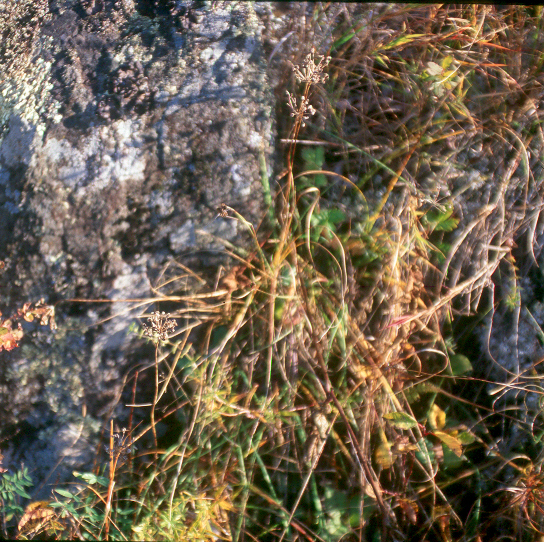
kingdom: Plantae
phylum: Tracheophyta
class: Liliopsida
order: Asparagales
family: Amaryllidaceae
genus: Allium
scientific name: Allium stellatum
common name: Autumn onion
